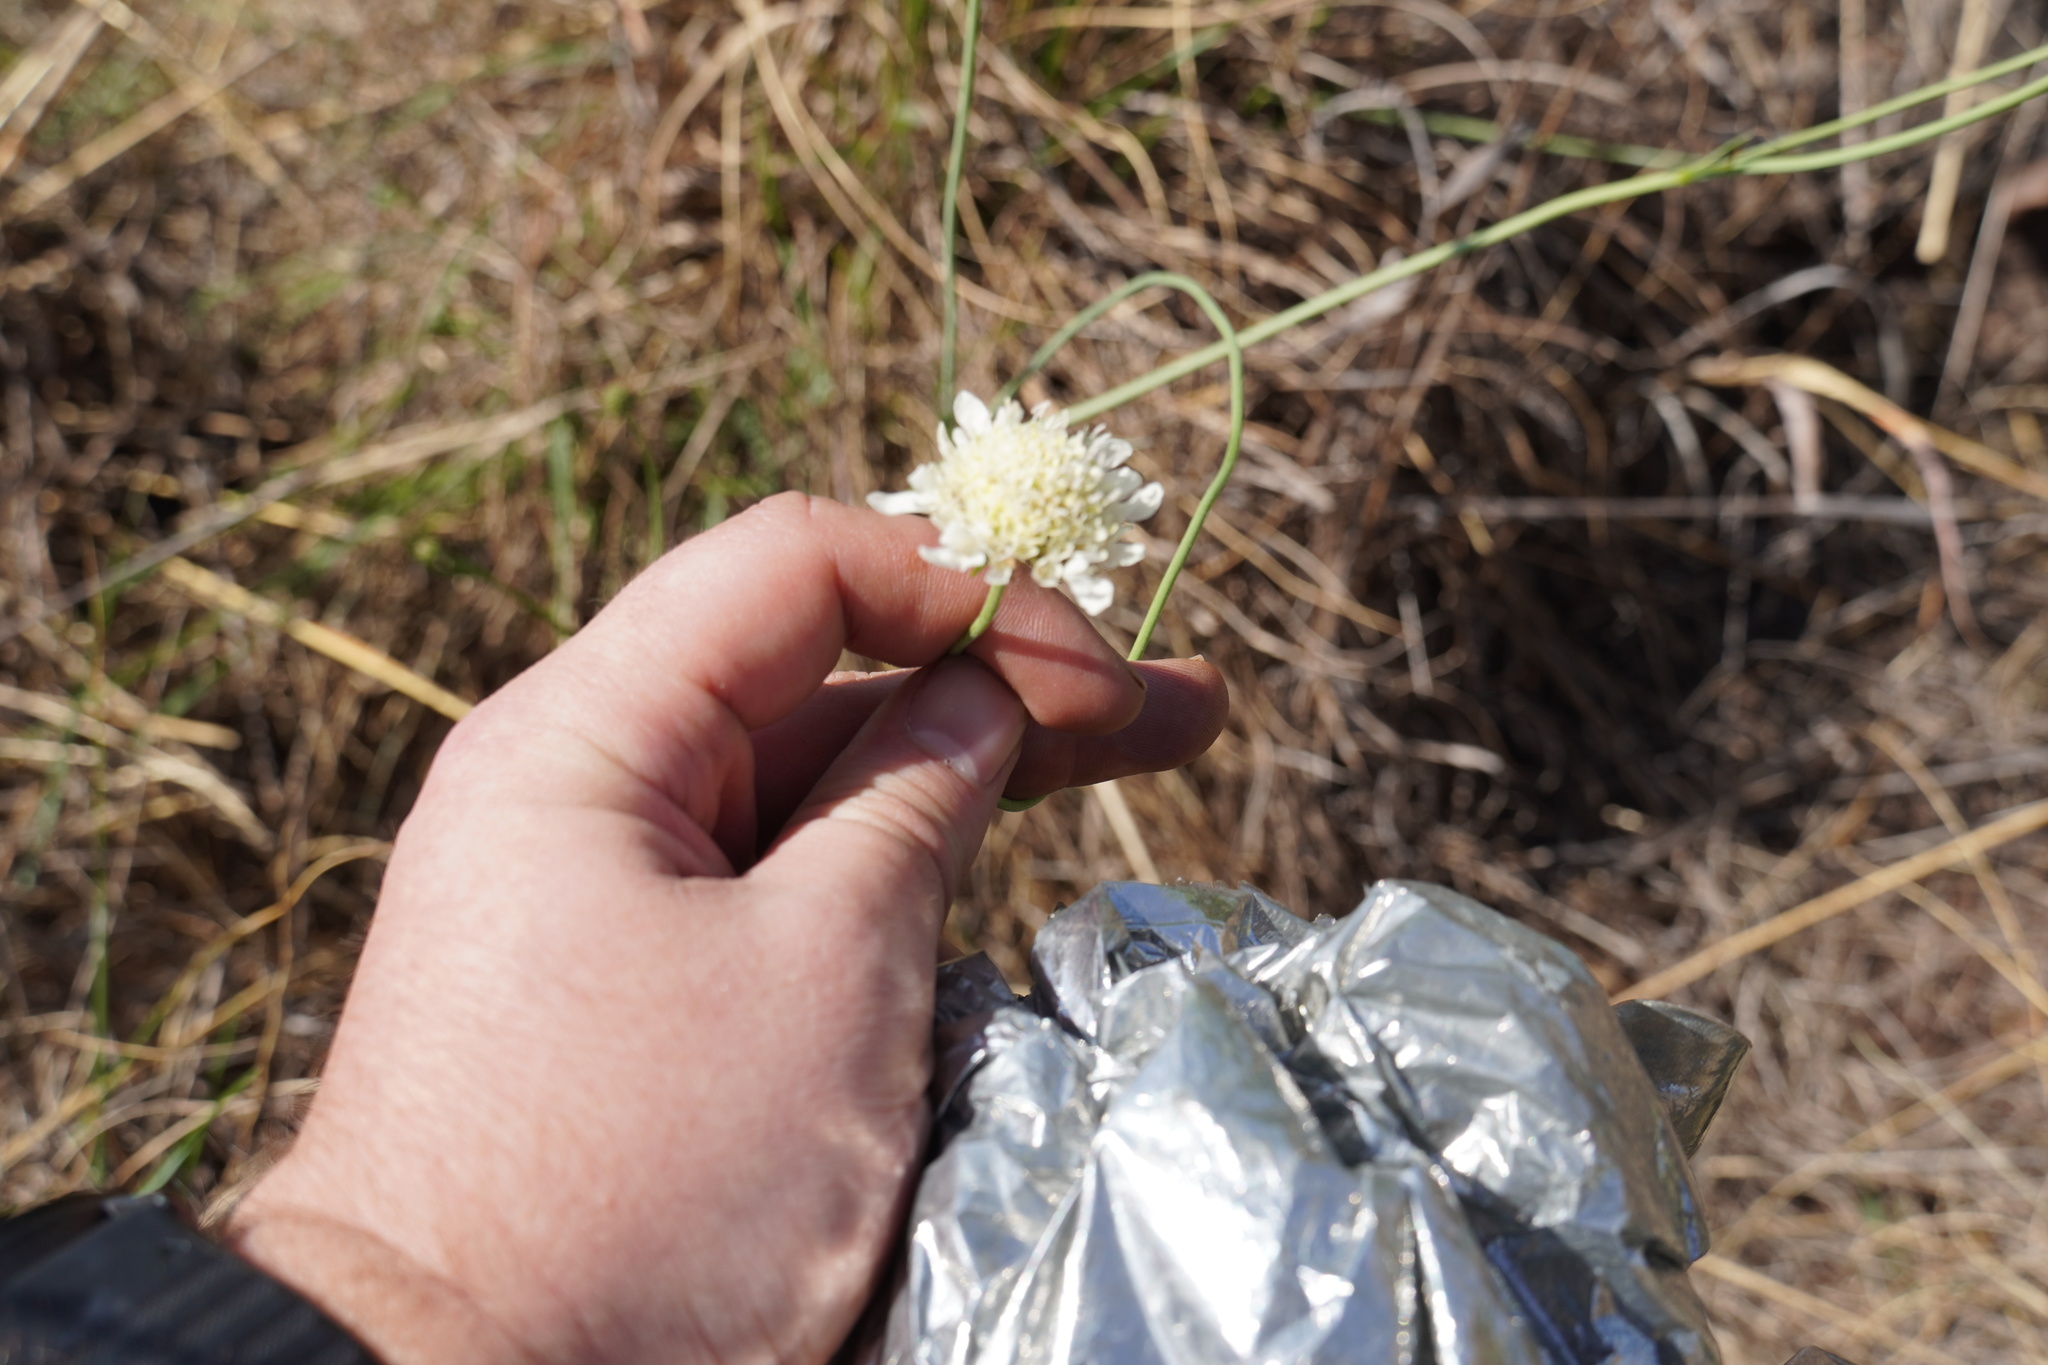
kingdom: Plantae
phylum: Tracheophyta
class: Magnoliopsida
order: Dipsacales
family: Caprifoliaceae
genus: Scabiosa
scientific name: Scabiosa columbaria
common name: Small scabious
